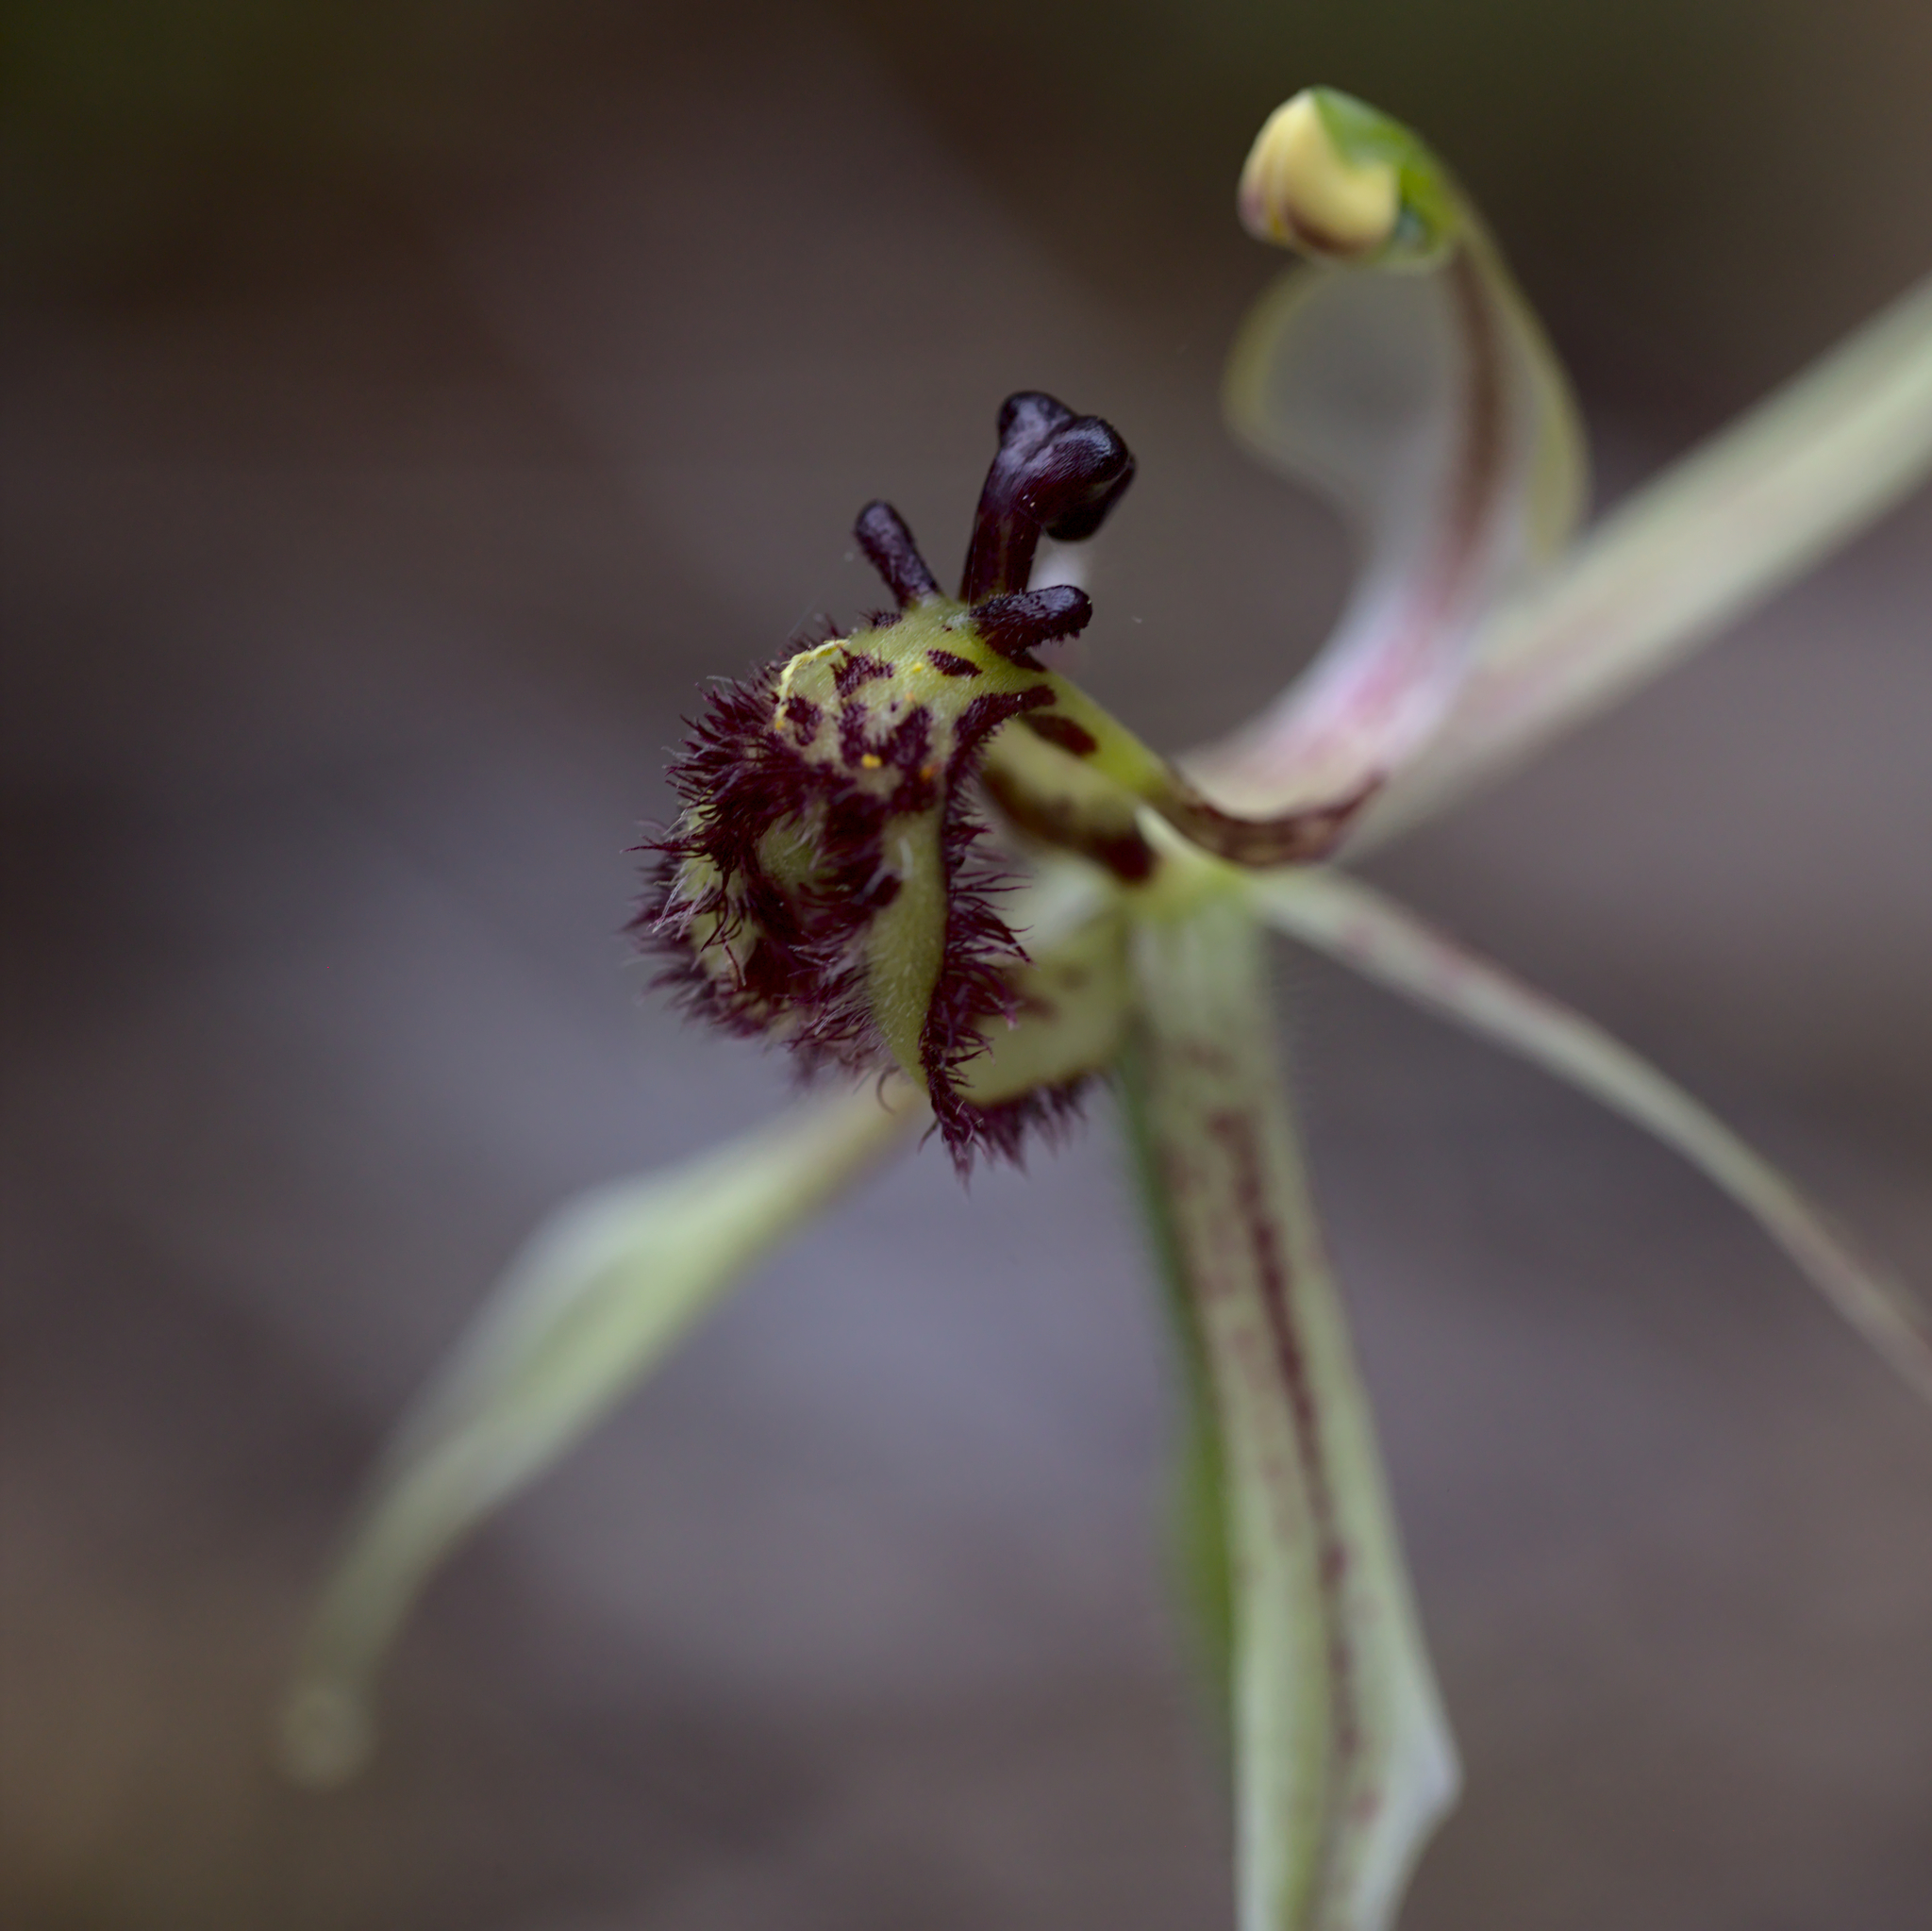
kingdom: Plantae
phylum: Tracheophyta
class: Liliopsida
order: Asparagales
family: Orchidaceae
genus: Caladenia
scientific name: Caladenia mesocera
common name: Narrow-lipped dragon orchid
